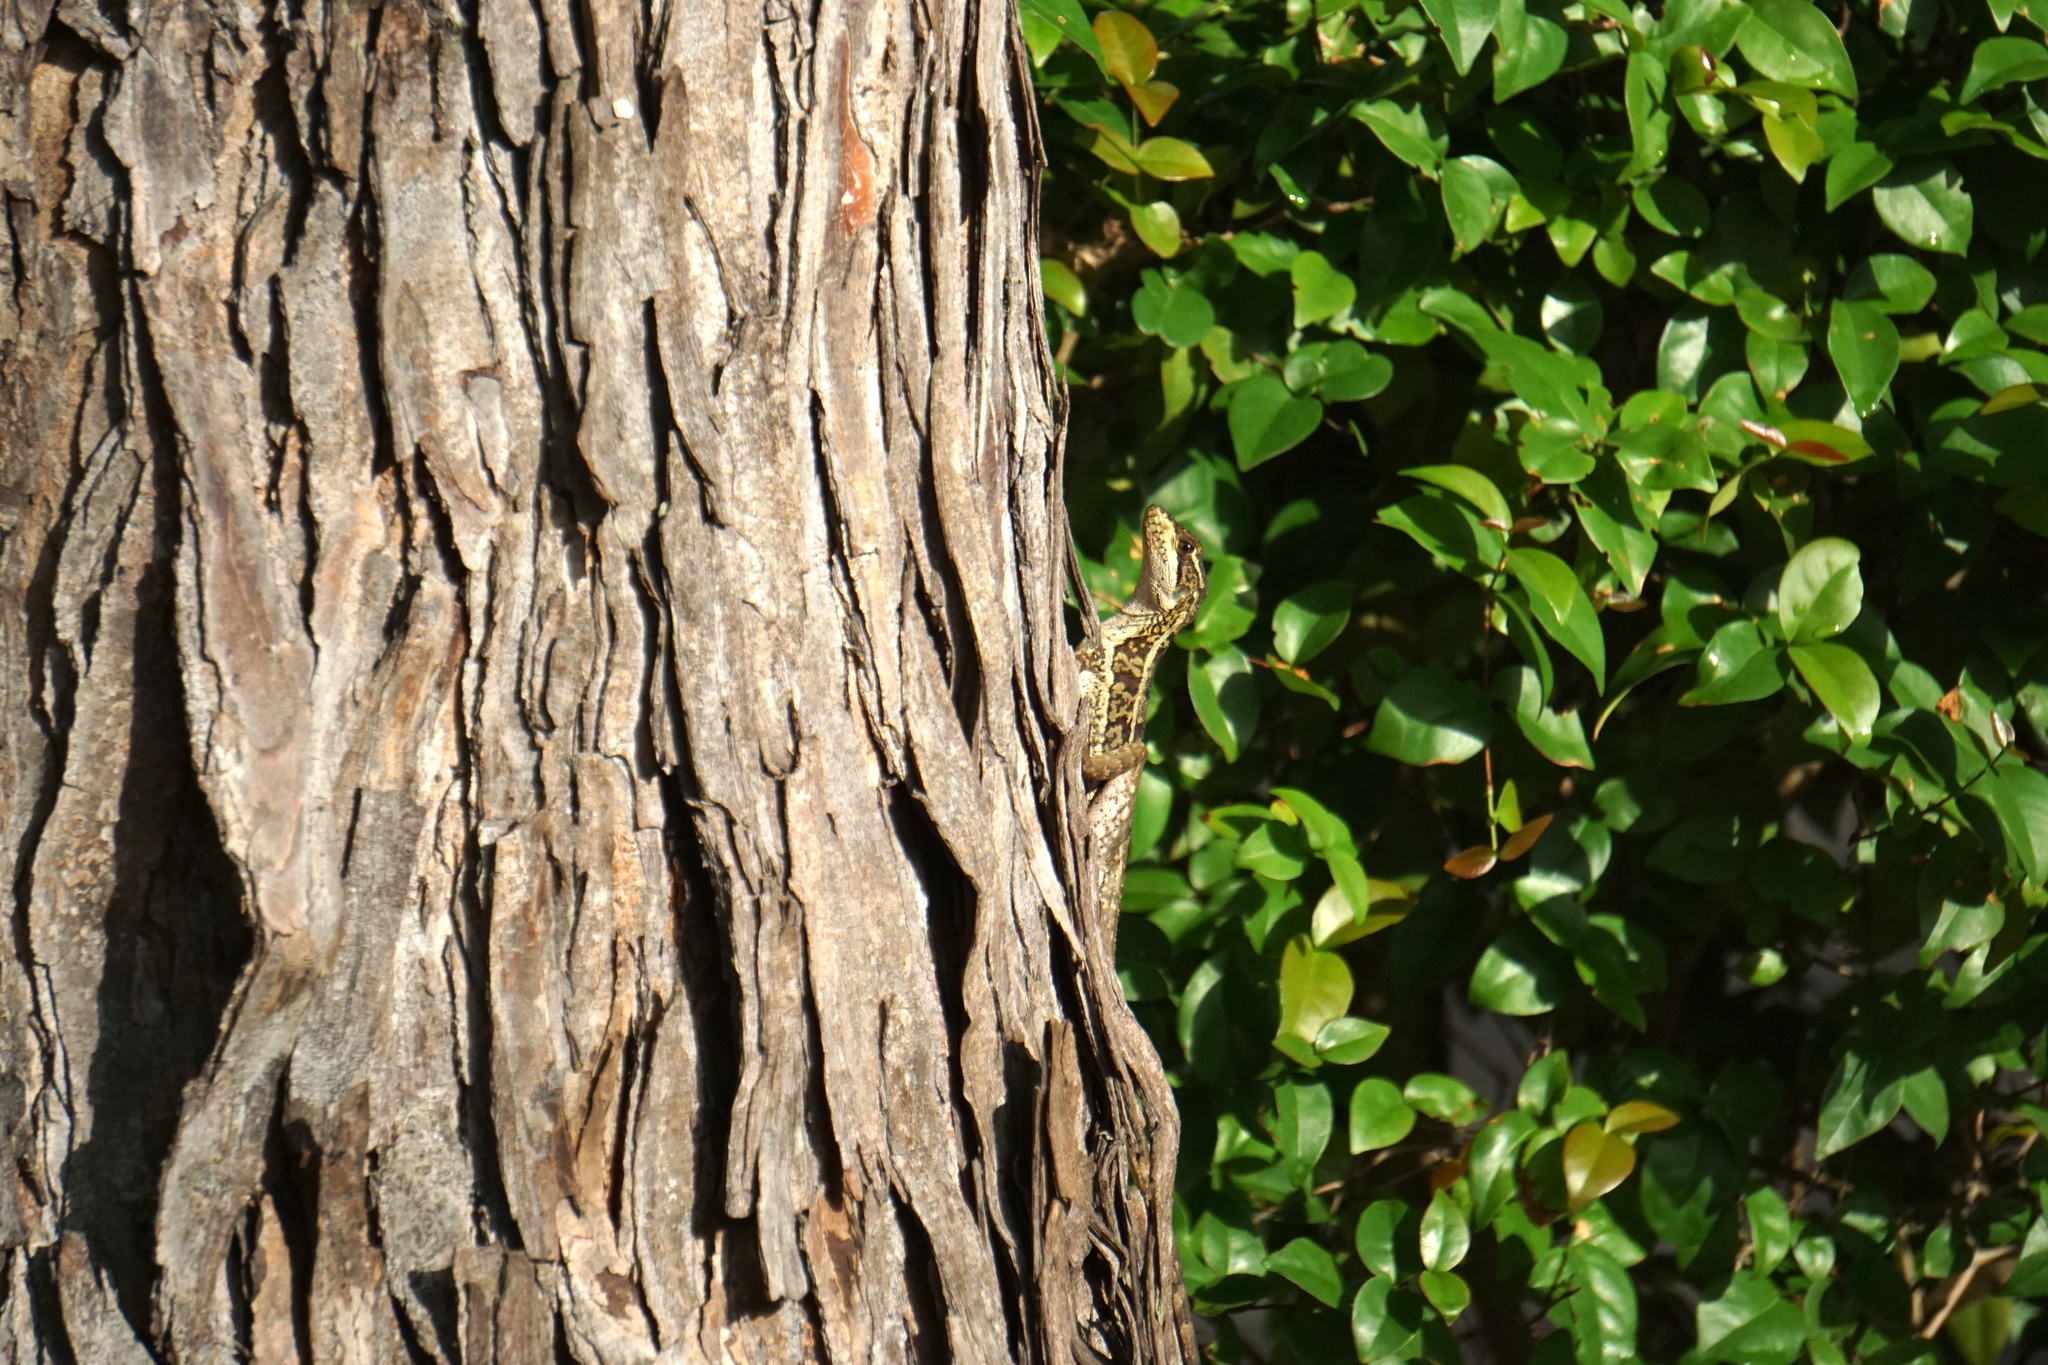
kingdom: Animalia
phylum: Chordata
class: Squamata
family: Corytophanidae
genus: Basiliscus
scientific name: Basiliscus vittatus
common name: Brown basilisk
